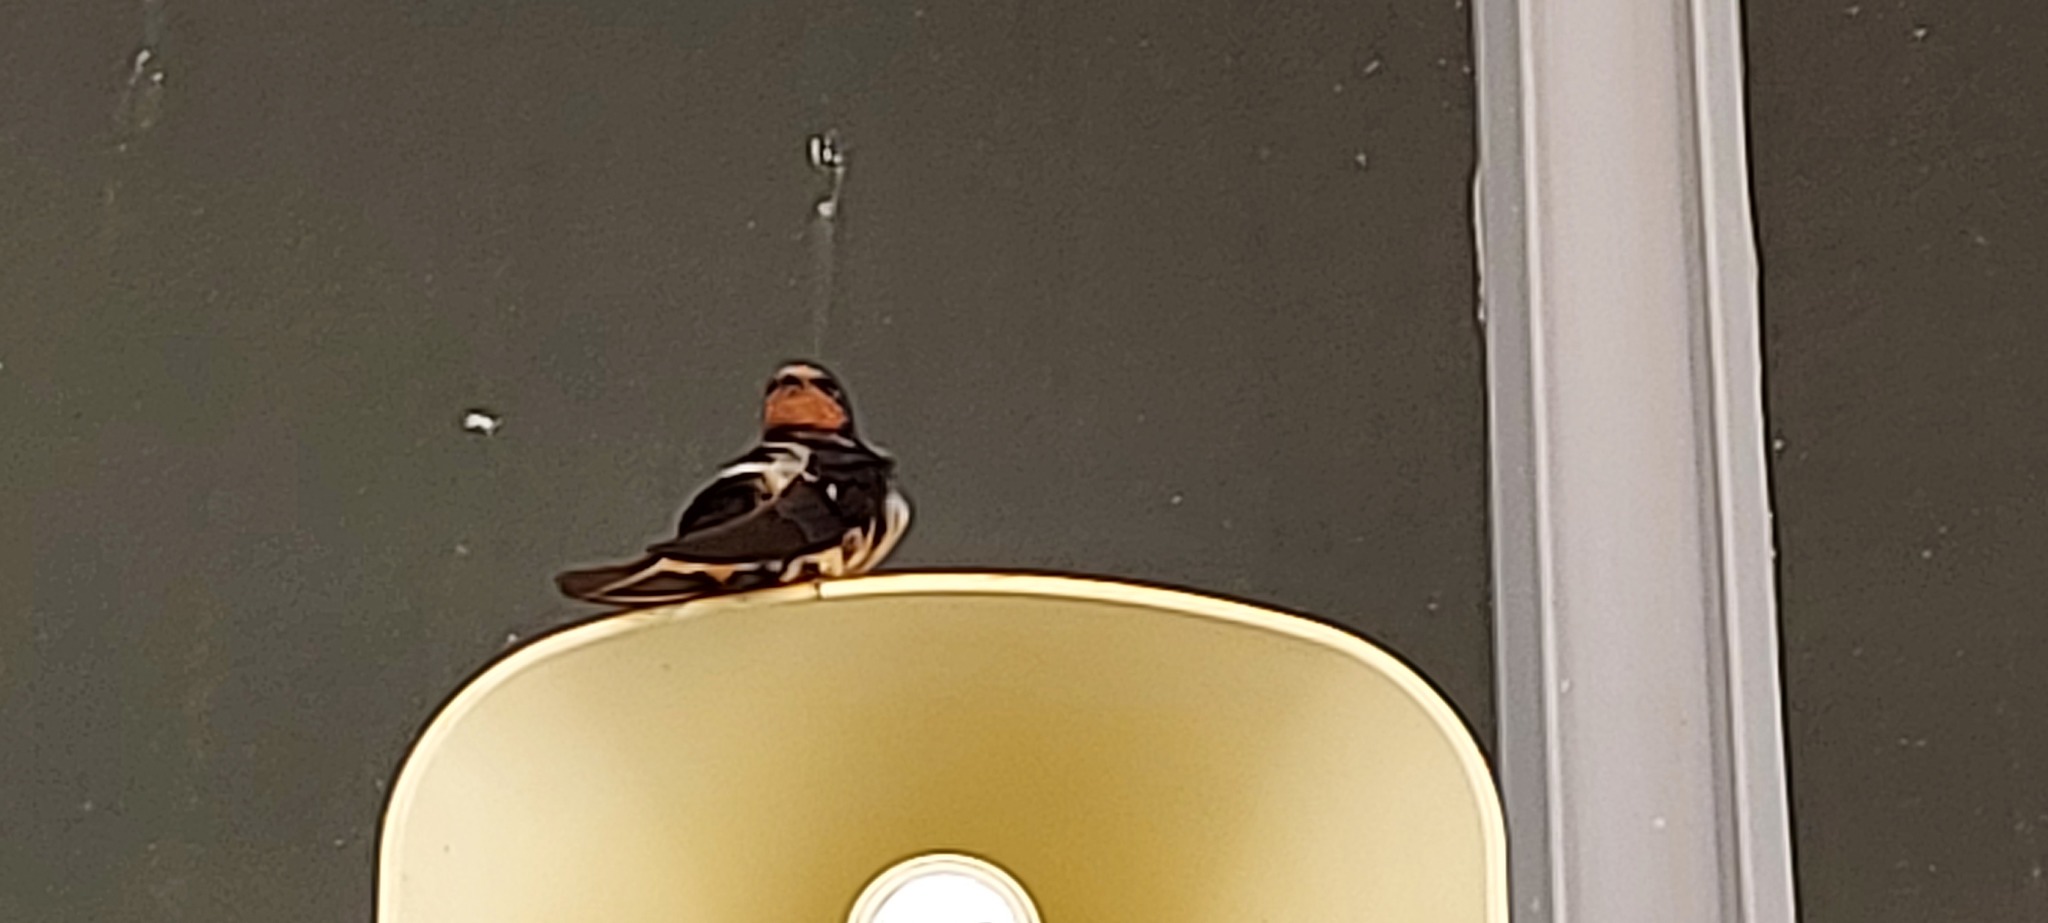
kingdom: Animalia
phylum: Chordata
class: Aves
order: Passeriformes
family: Hirundinidae
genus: Hirundo
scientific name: Hirundo rustica
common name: Barn swallow
